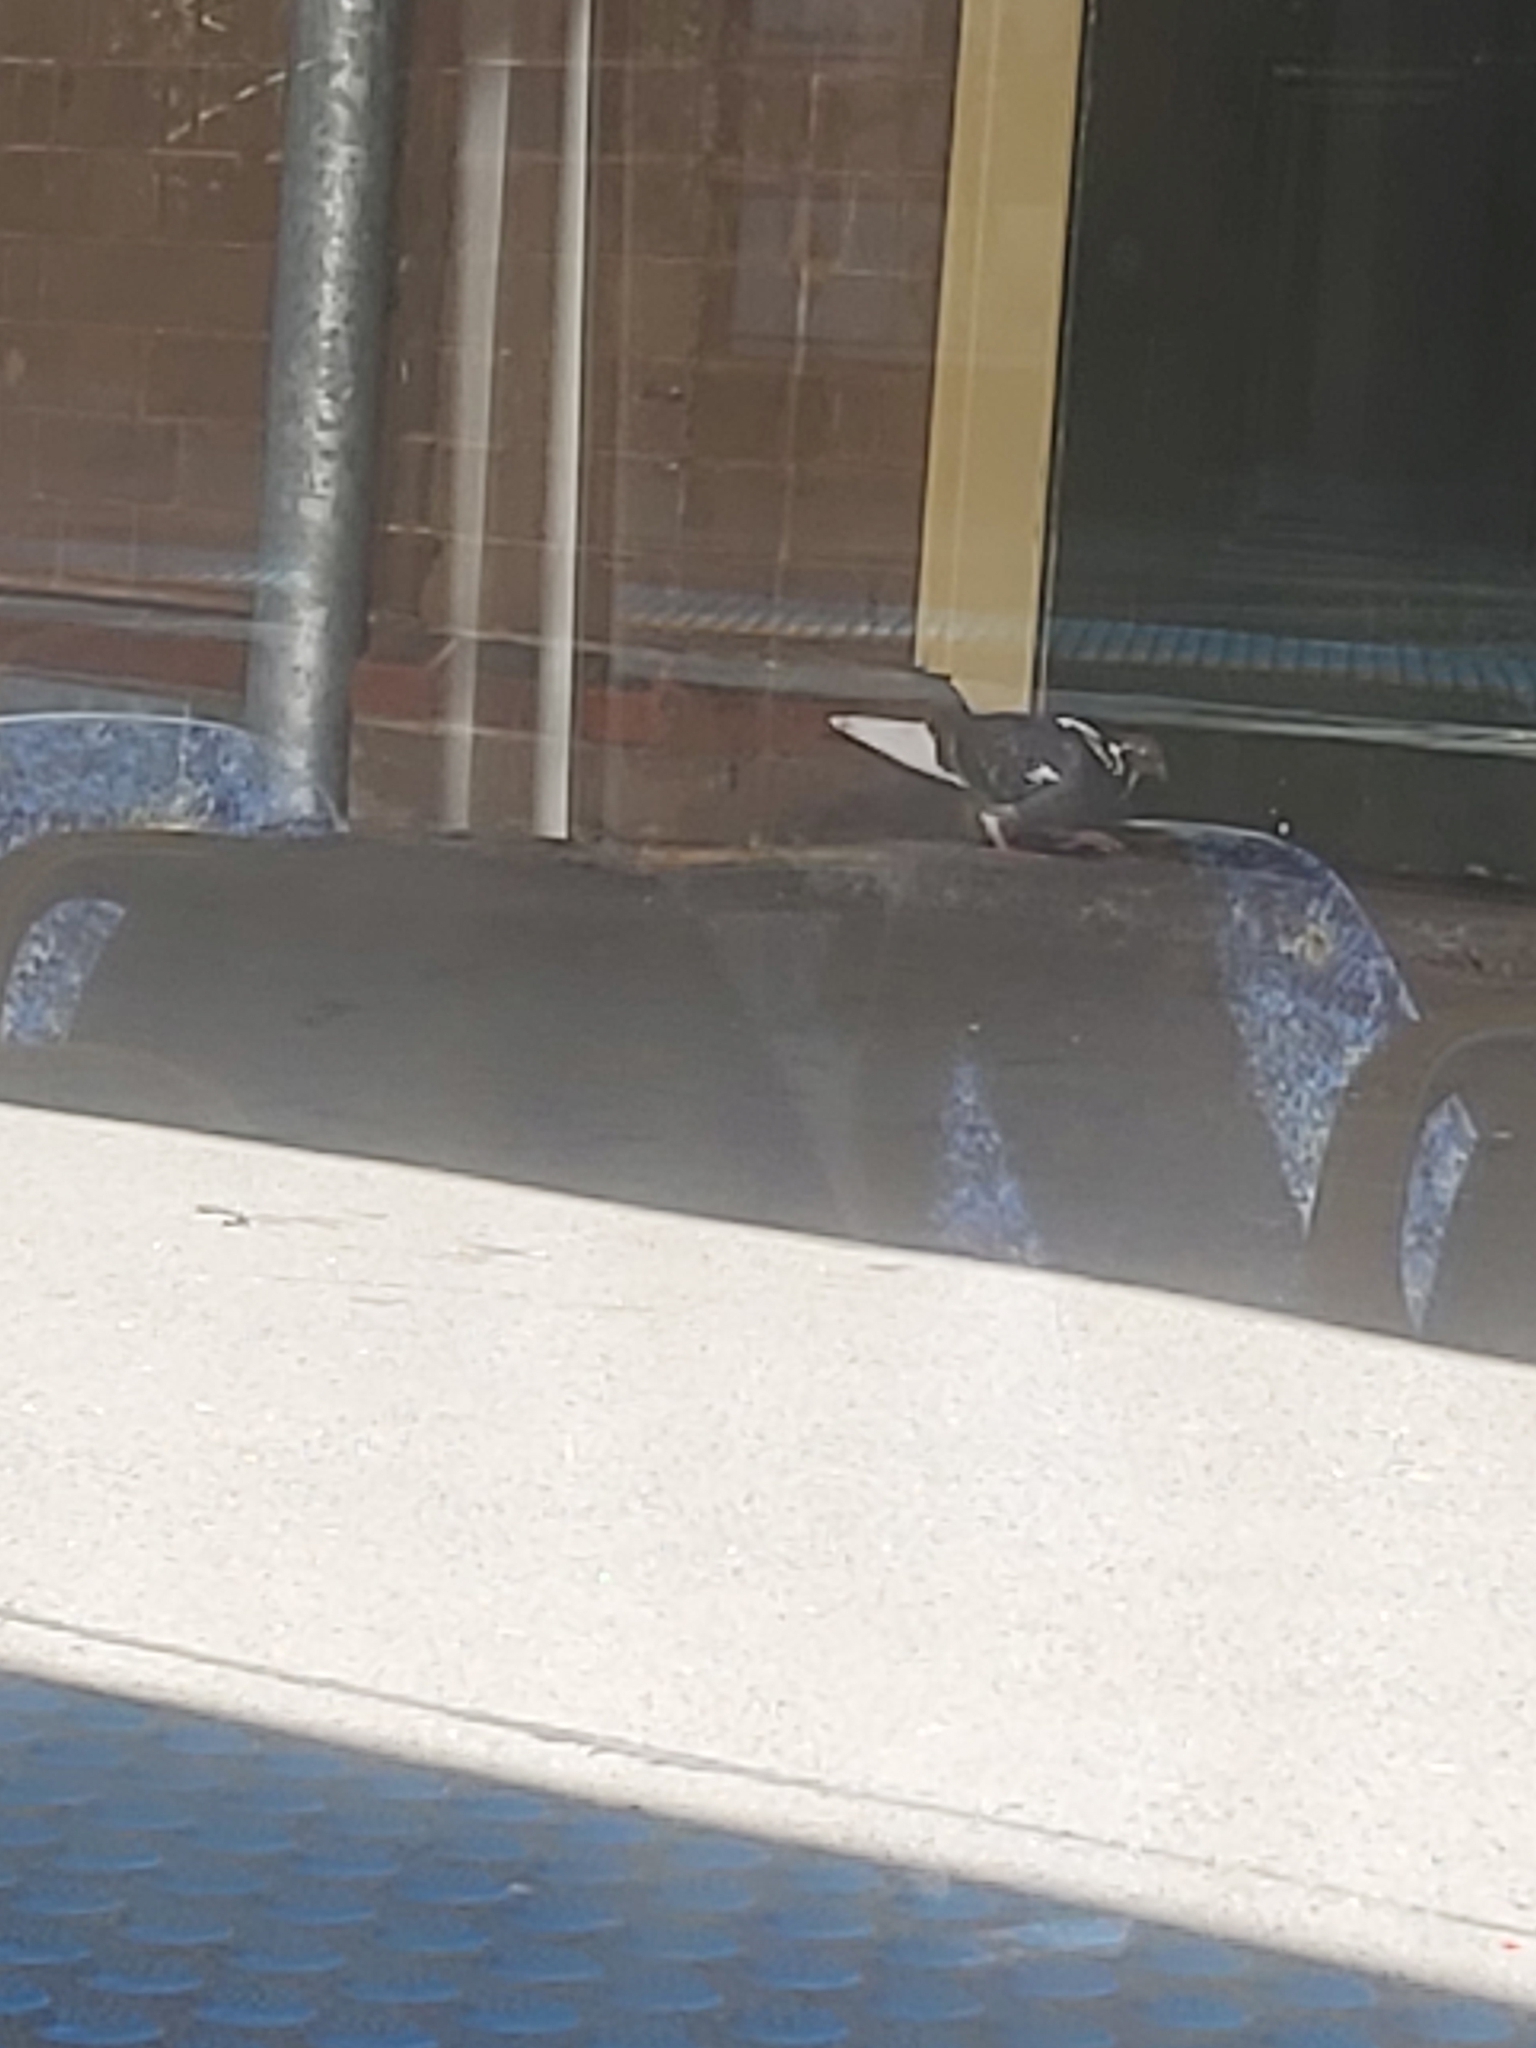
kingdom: Animalia
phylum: Chordata
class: Aves
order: Columbiformes
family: Columbidae
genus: Columba
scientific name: Columba livia
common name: Rock pigeon
